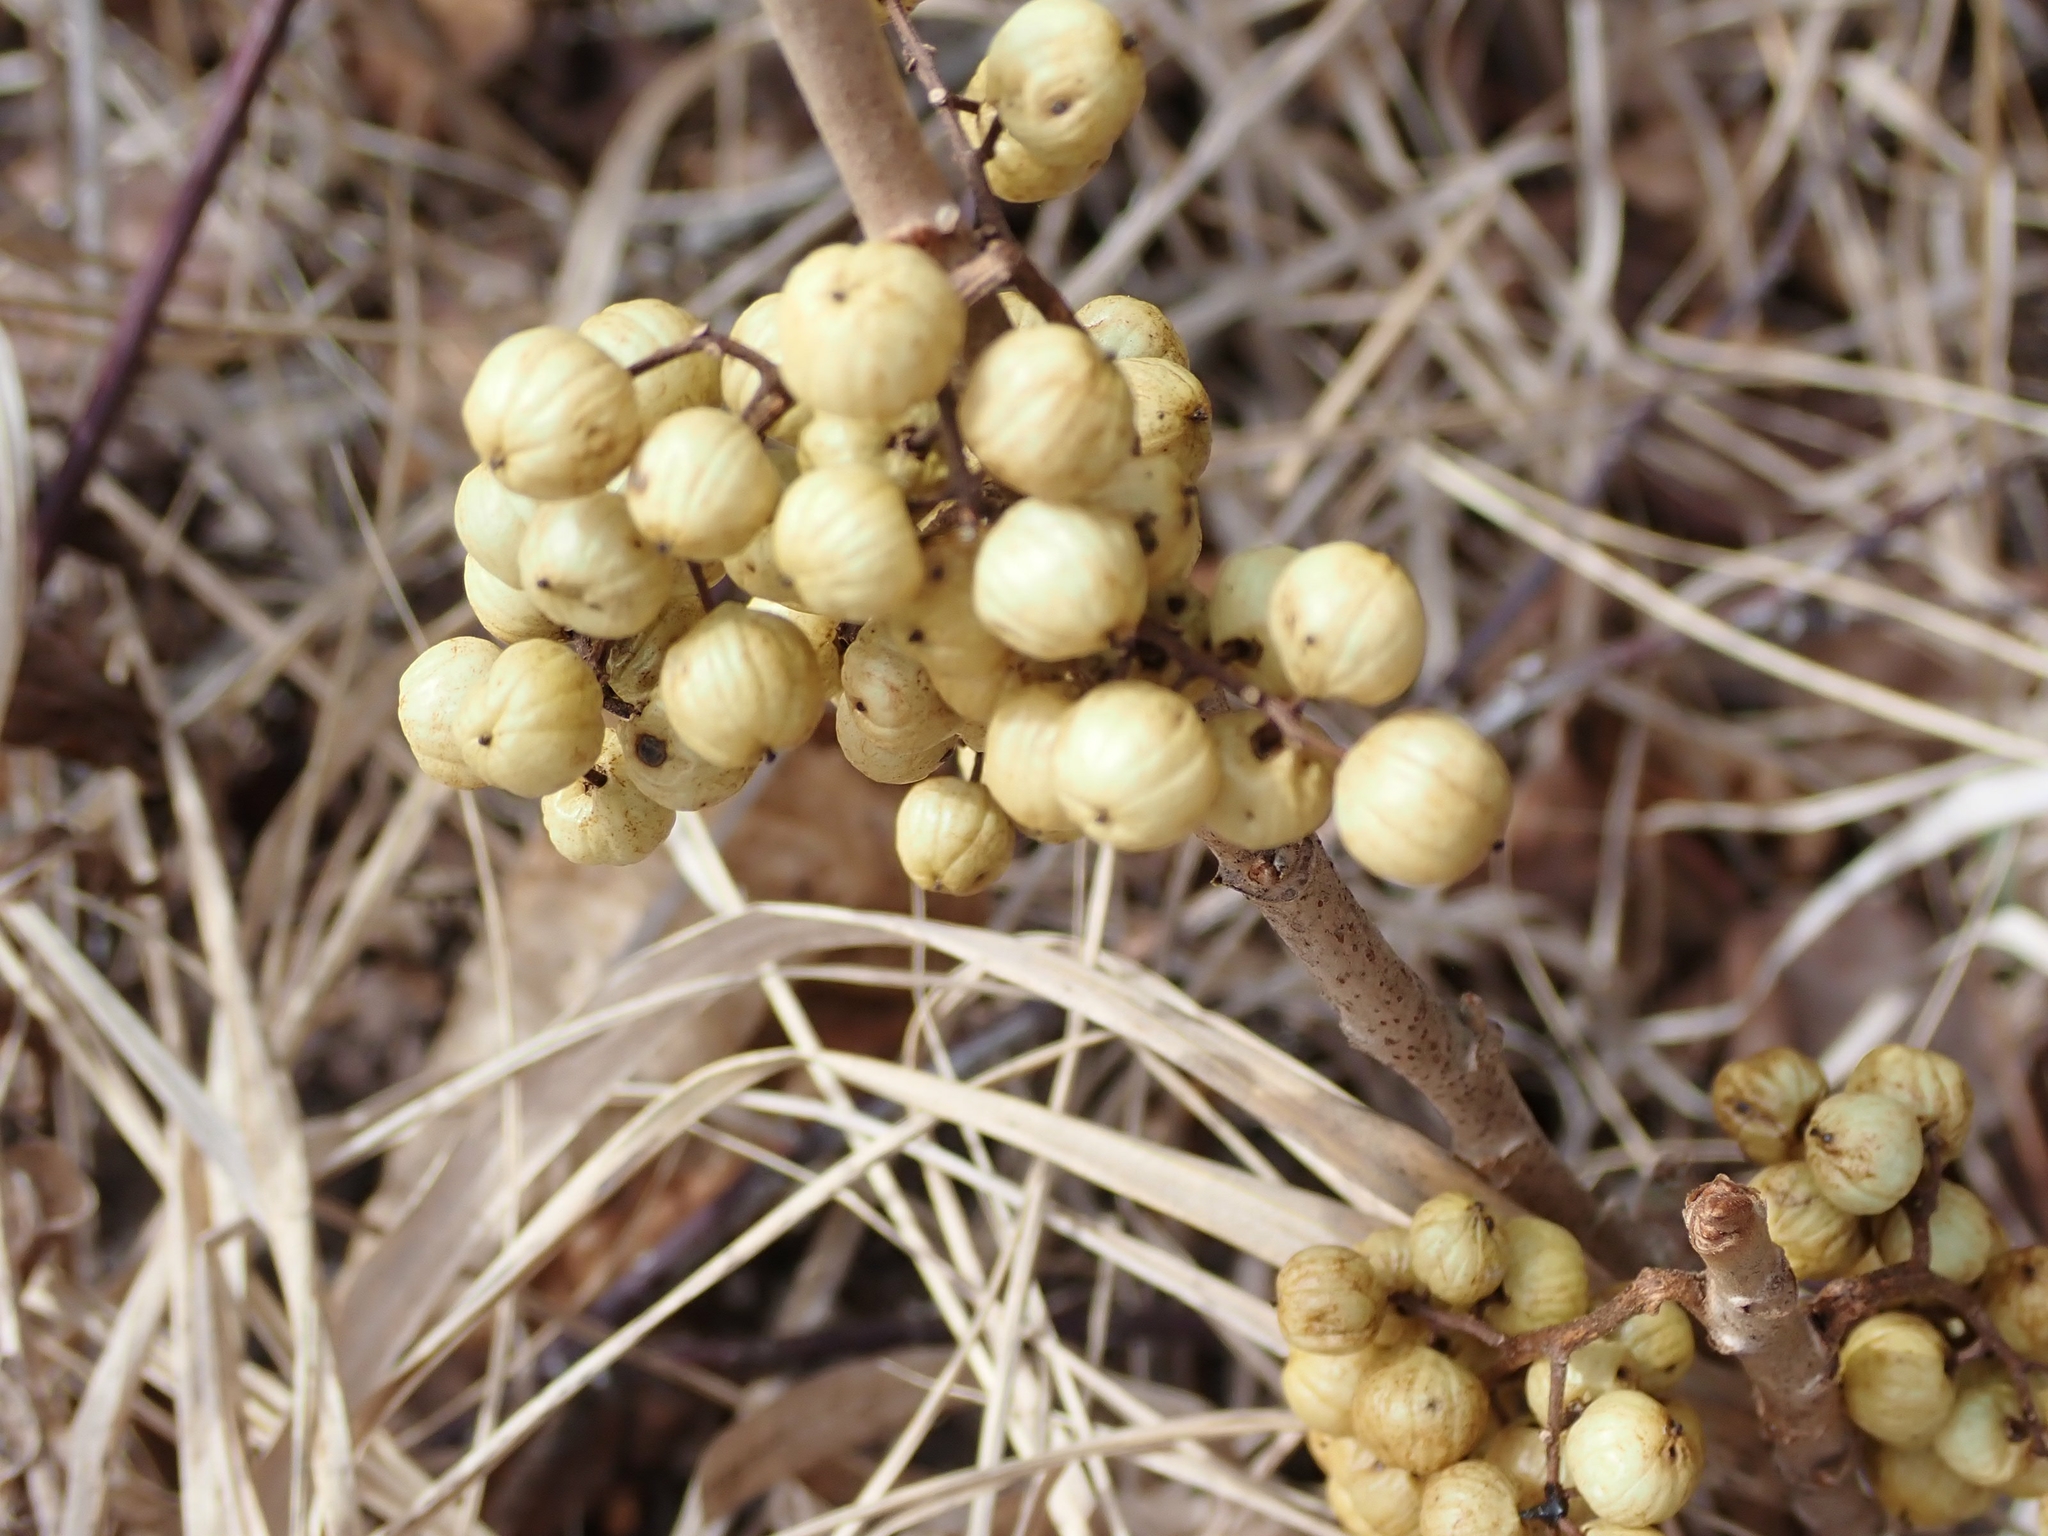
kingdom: Plantae
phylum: Tracheophyta
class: Magnoliopsida
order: Sapindales
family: Anacardiaceae
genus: Toxicodendron
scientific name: Toxicodendron rydbergii
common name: Rydberg's poison-ivy
